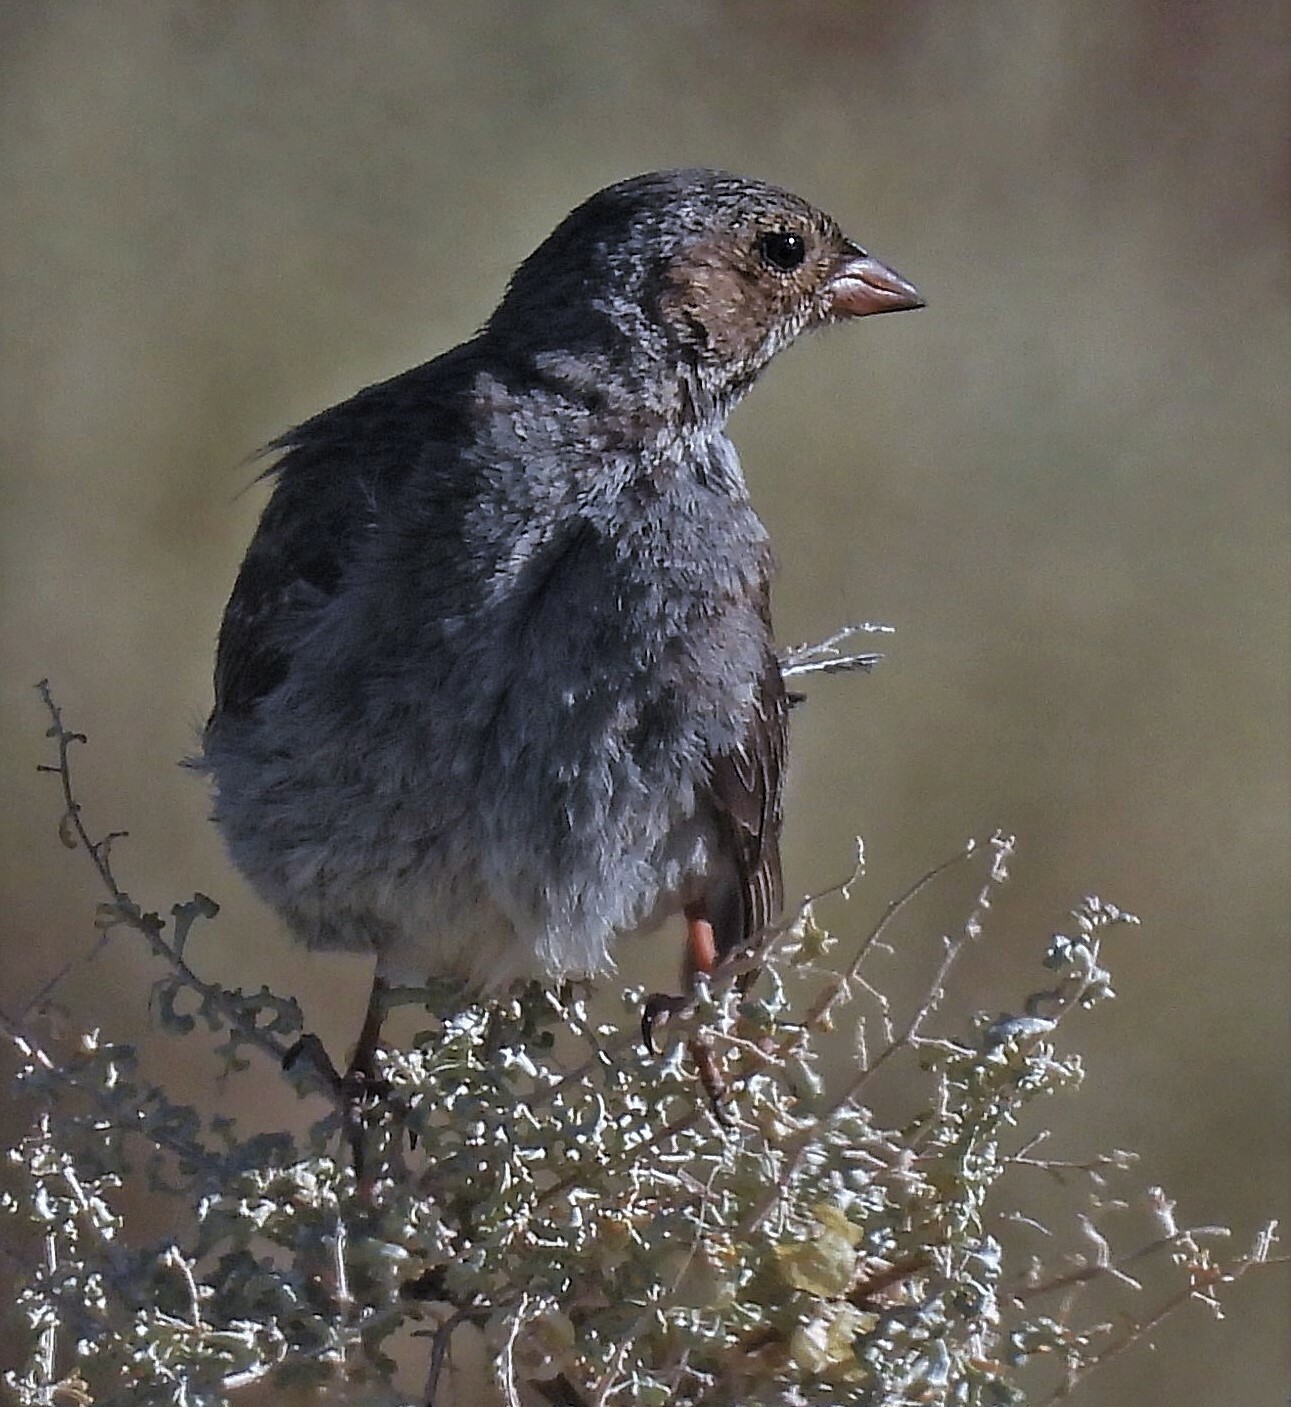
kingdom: Animalia
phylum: Chordata
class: Aves
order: Passeriformes
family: Thraupidae
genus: Rhopospina
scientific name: Rhopospina fruticeti
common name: Mourning sierra finch
